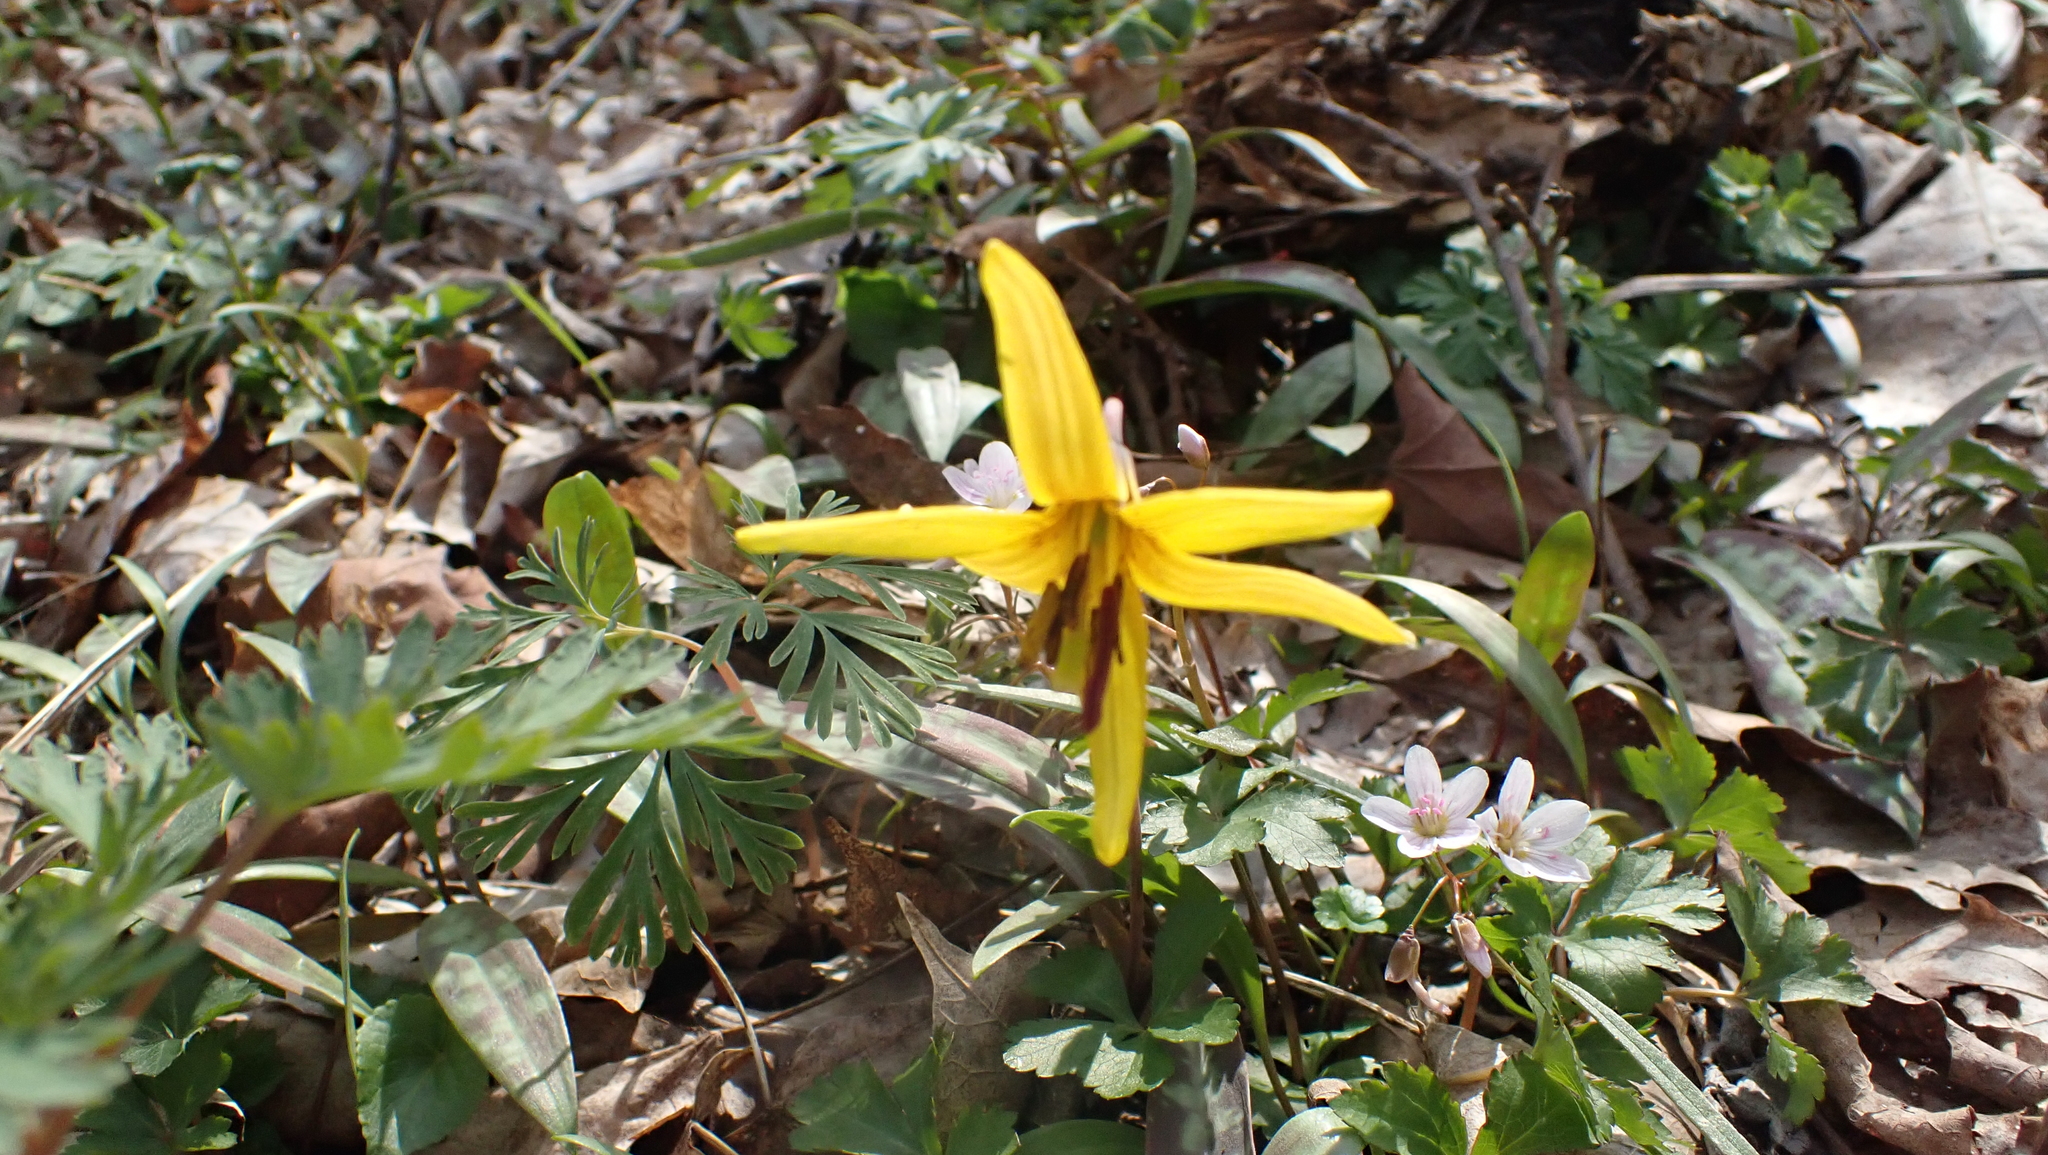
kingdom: Plantae
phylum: Tracheophyta
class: Liliopsida
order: Liliales
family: Liliaceae
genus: Erythronium
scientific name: Erythronium americanum
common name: Yellow adder's-tongue
